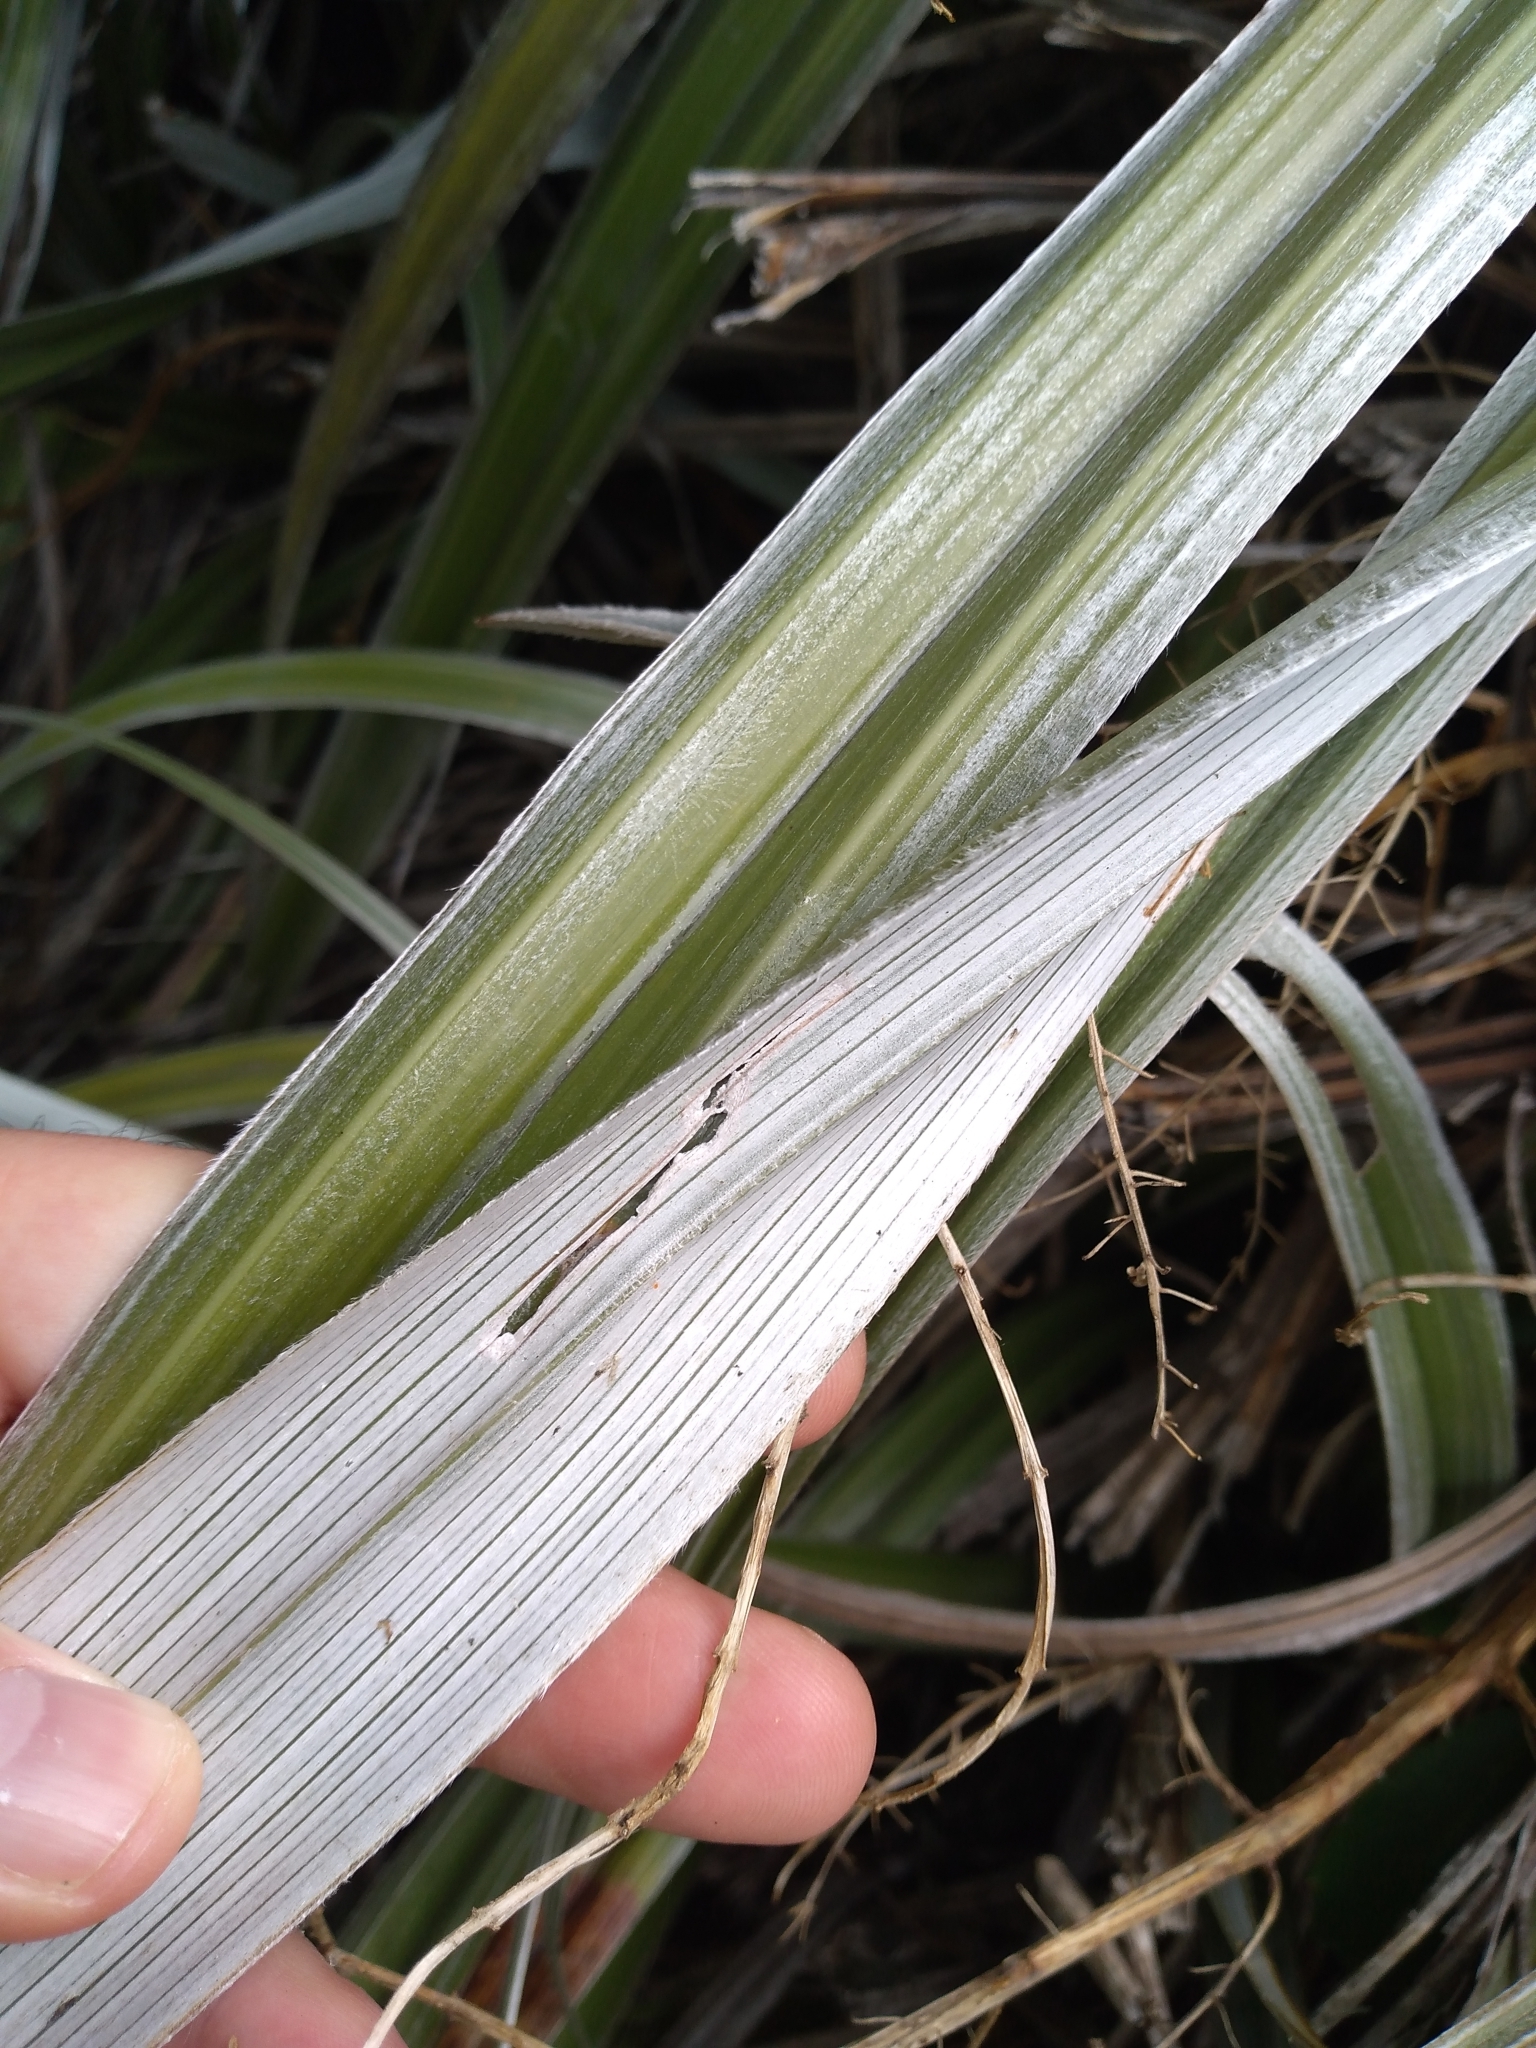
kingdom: Plantae
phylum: Tracheophyta
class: Liliopsida
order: Asparagales
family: Asteliaceae
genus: Astelia
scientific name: Astelia nervosa
